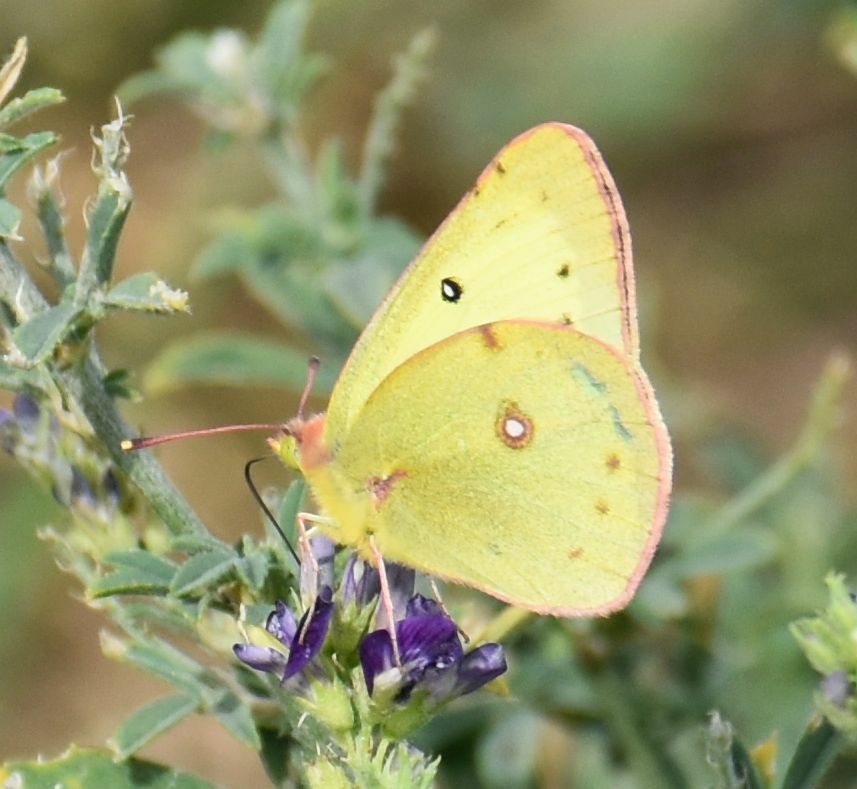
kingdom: Animalia
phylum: Arthropoda
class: Insecta
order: Lepidoptera
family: Pieridae
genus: Colias
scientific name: Colias philodice
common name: Clouded sulphur
